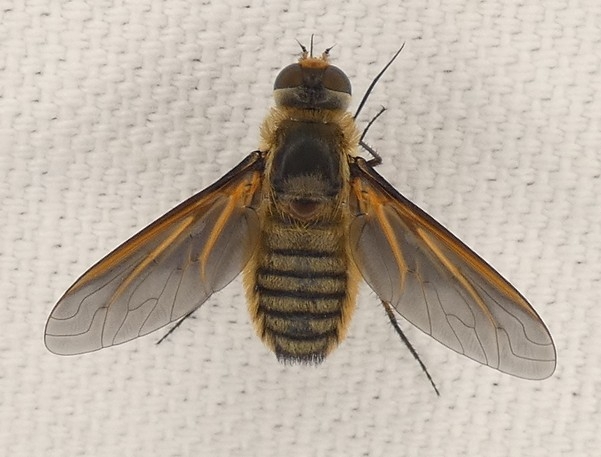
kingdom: Animalia
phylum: Arthropoda
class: Insecta
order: Diptera
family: Bombyliidae
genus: Poecilanthrax
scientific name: Poecilanthrax lucifer
